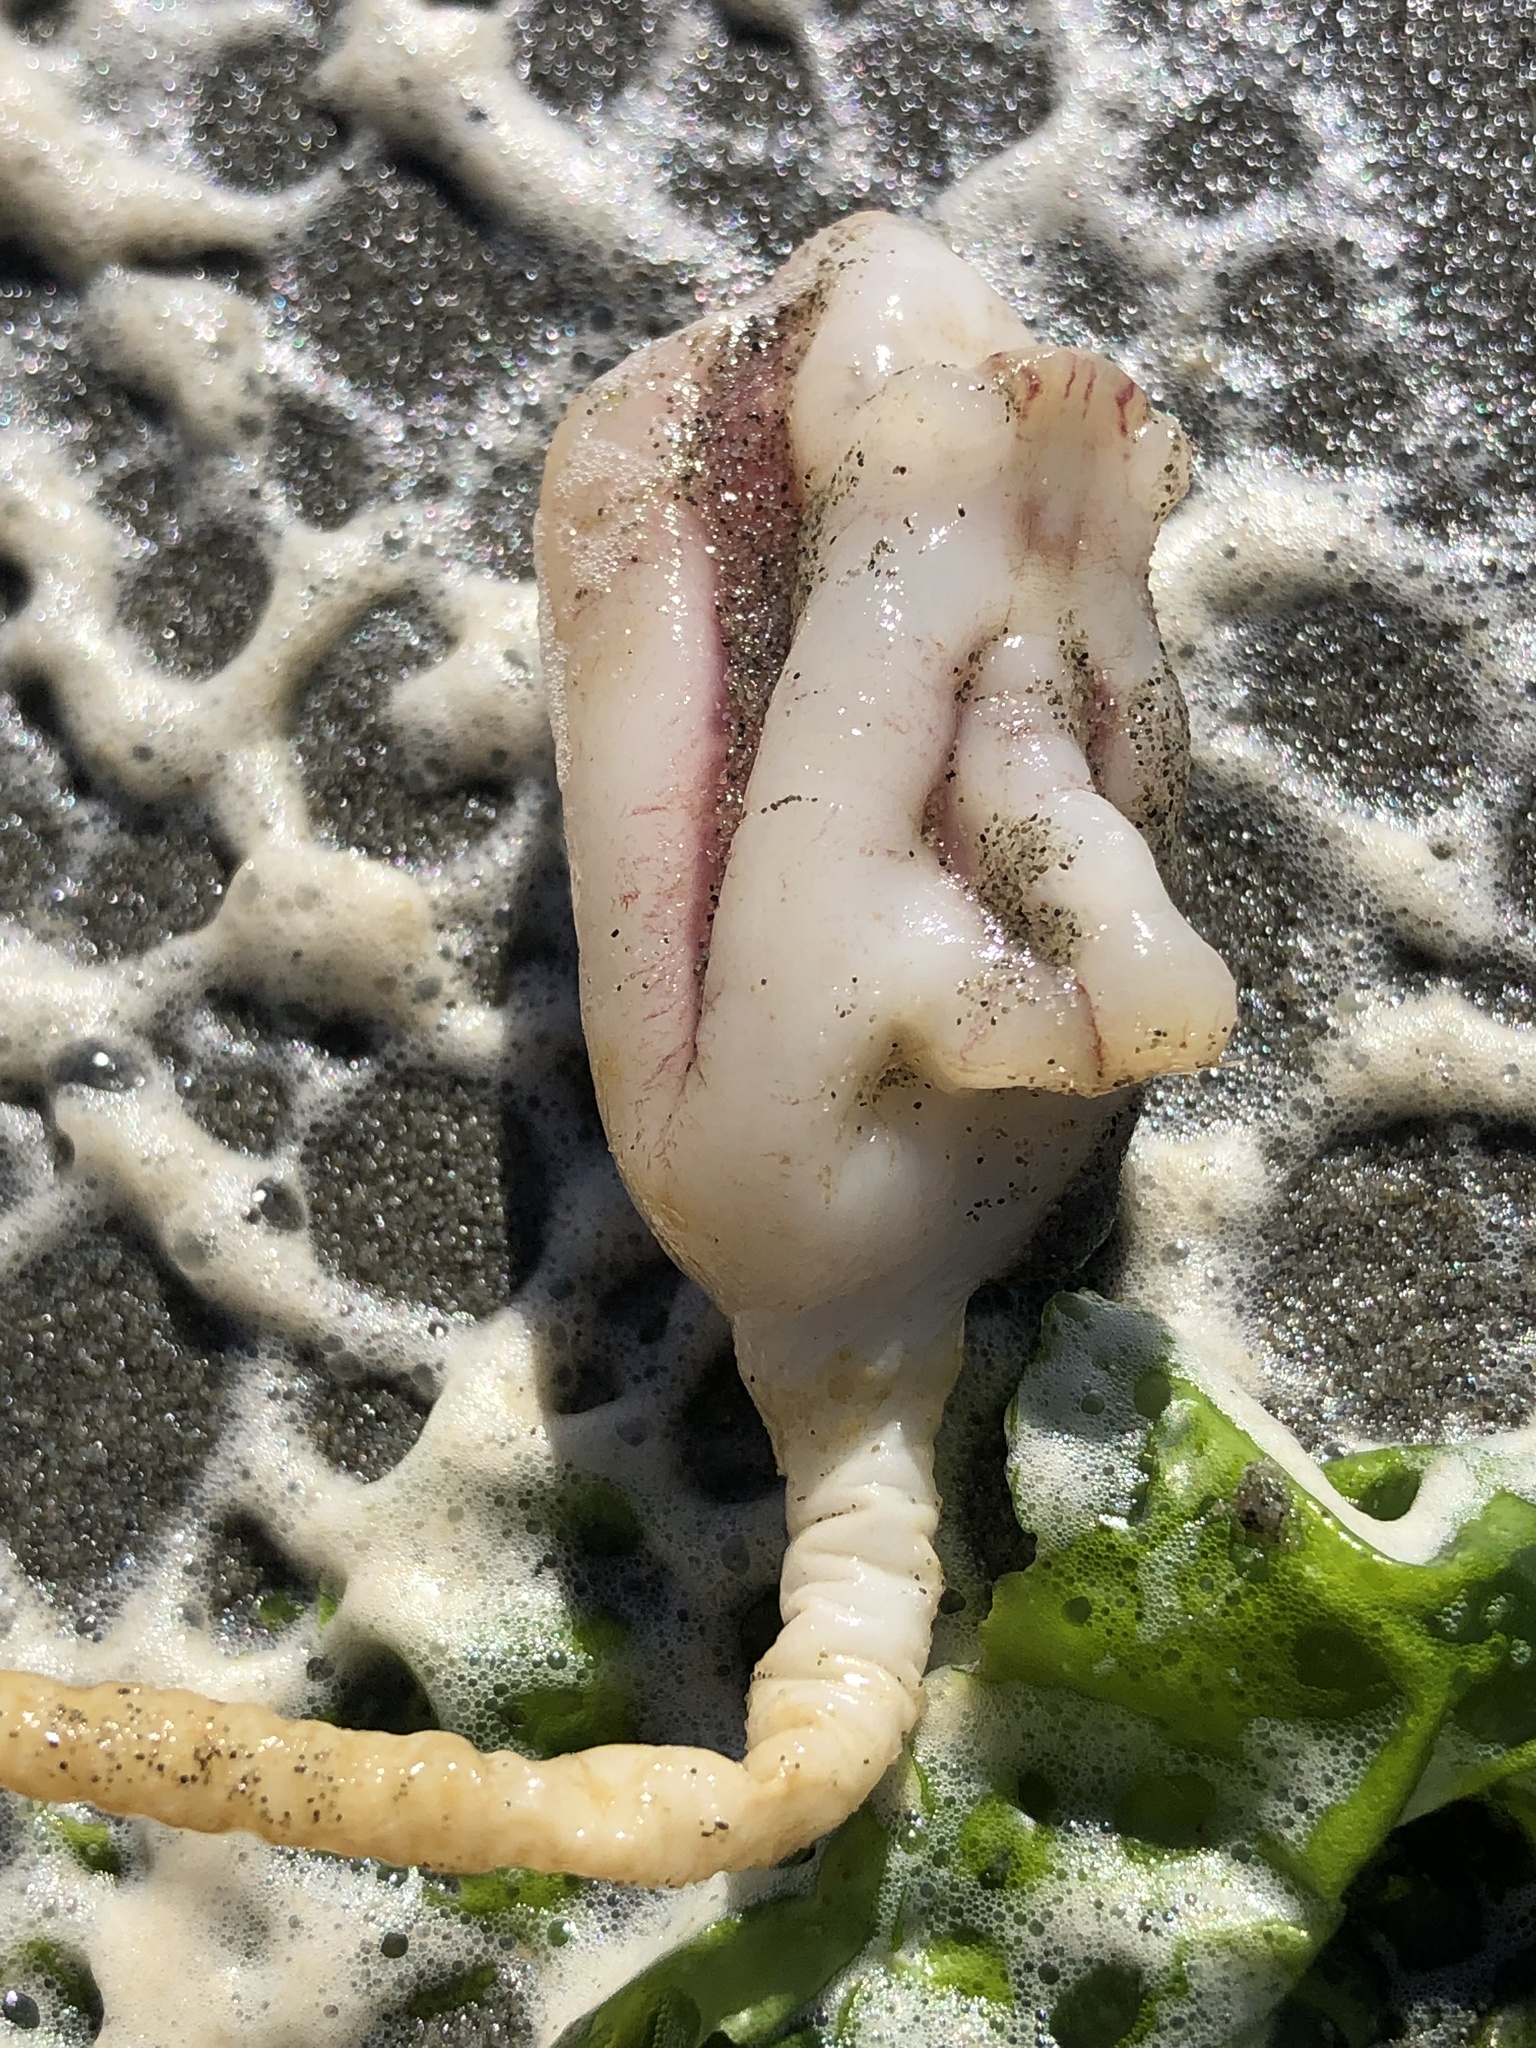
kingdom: Animalia
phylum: Chordata
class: Ascidiacea
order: Stolidobranchia
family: Pyuridae
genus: Pyura
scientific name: Pyura pachydermatina
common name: Sea tulip
